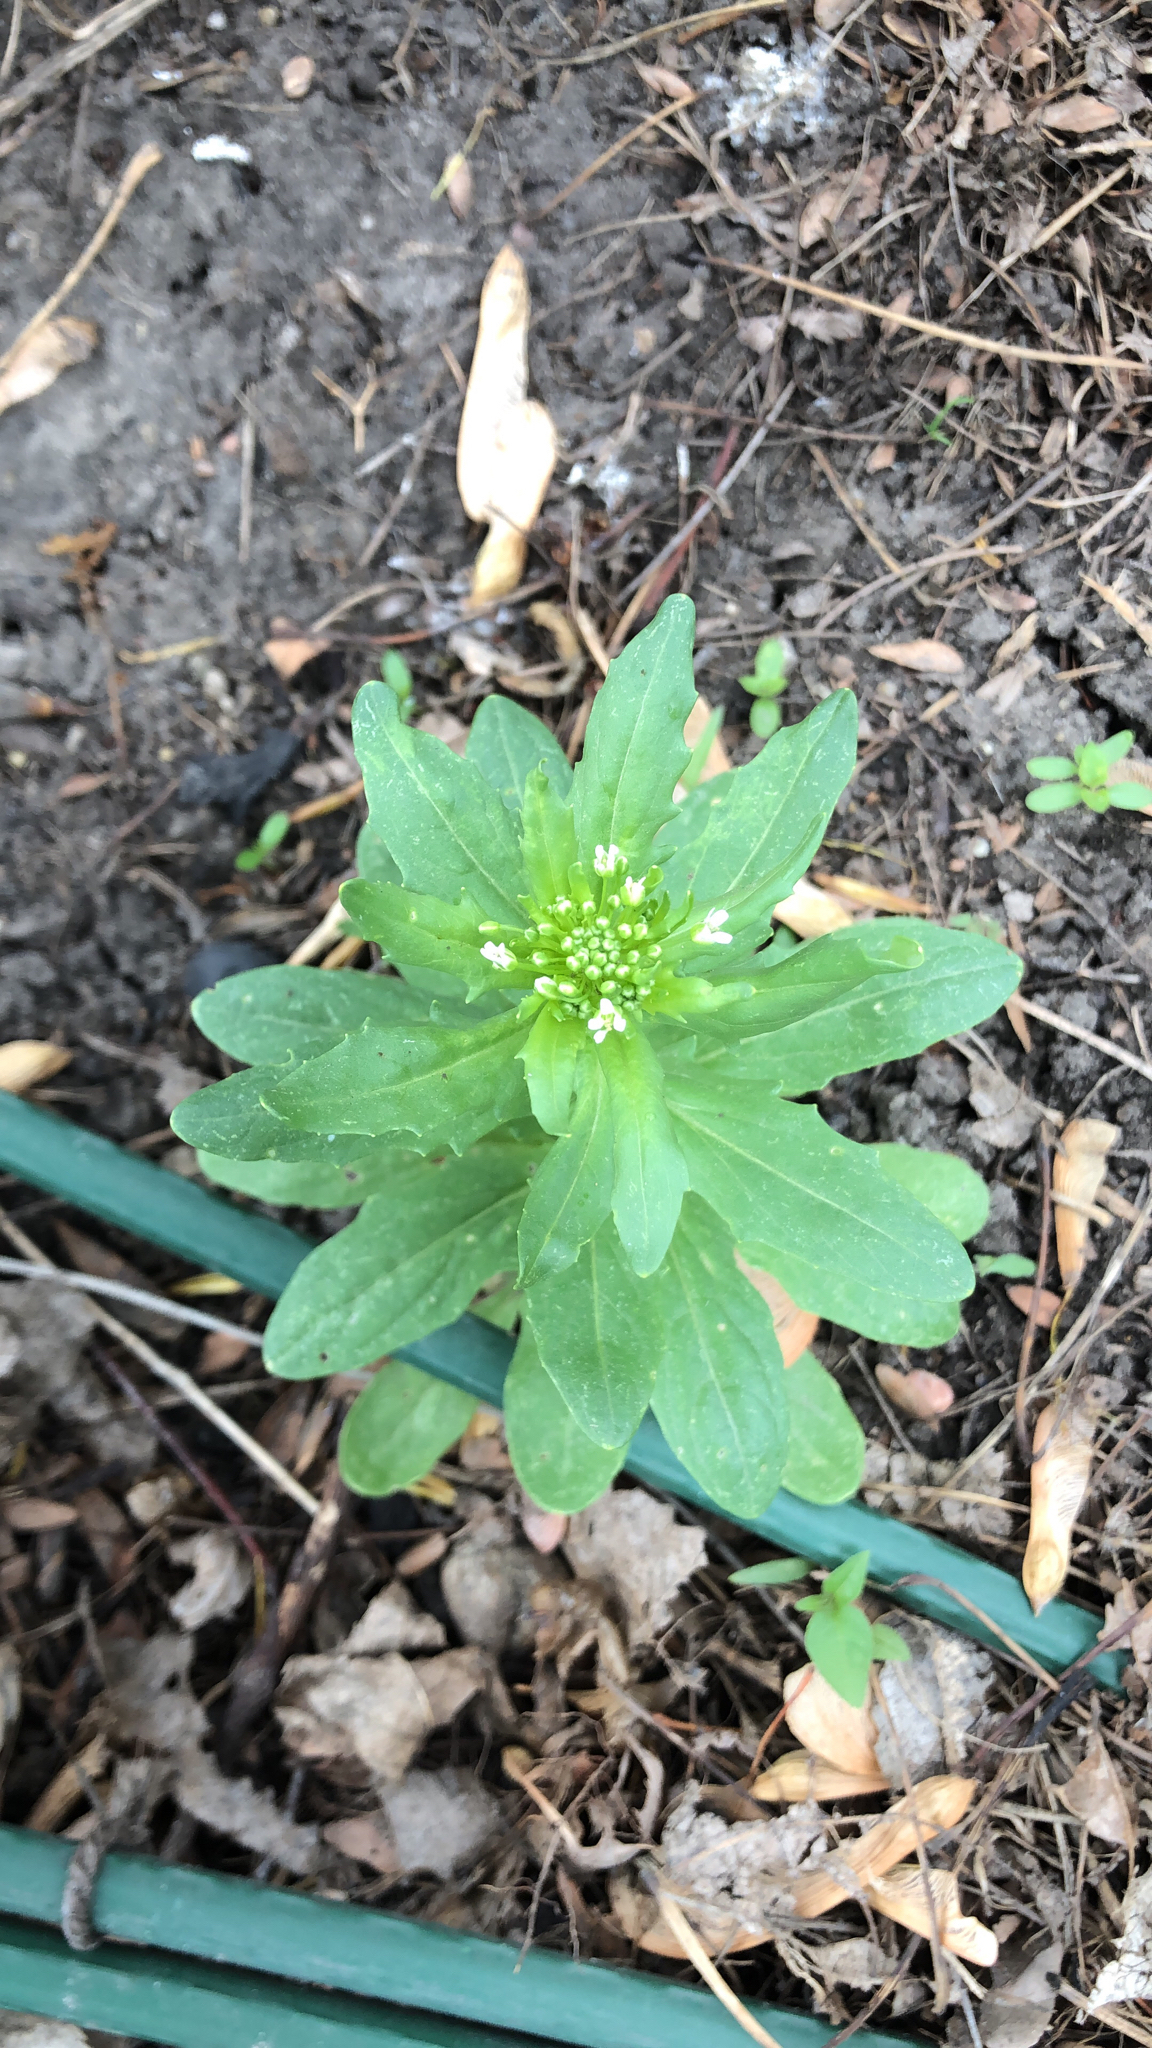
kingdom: Plantae
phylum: Tracheophyta
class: Magnoliopsida
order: Brassicales
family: Brassicaceae
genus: Thlaspi
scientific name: Thlaspi arvense
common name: Field pennycress
